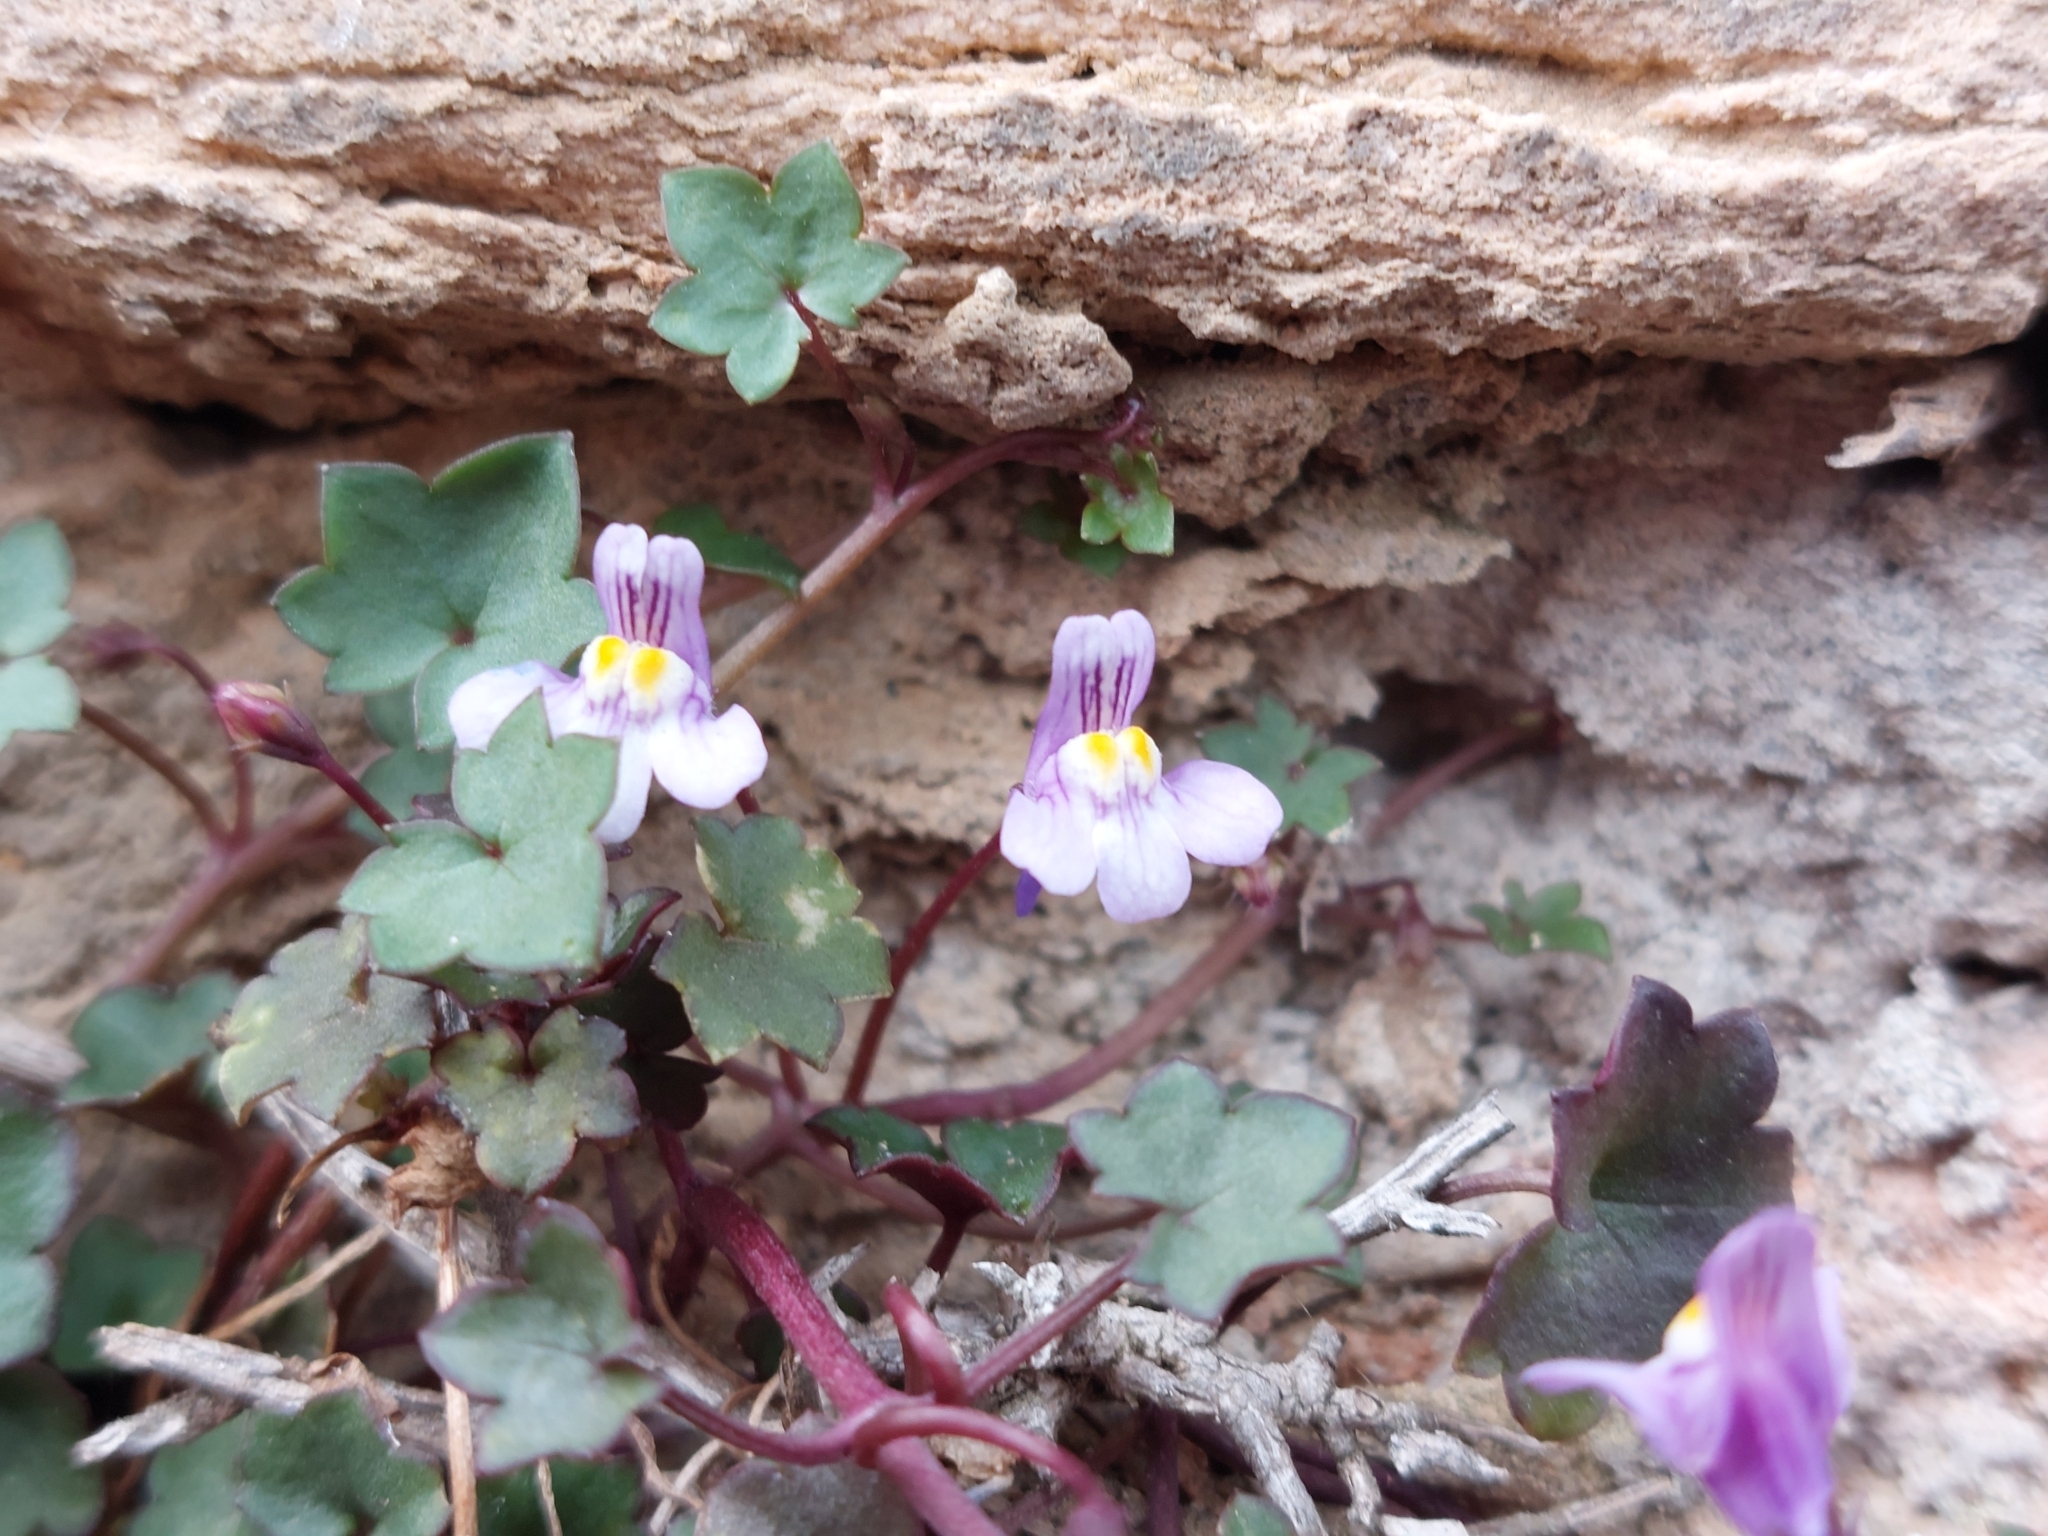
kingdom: Plantae
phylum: Tracheophyta
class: Magnoliopsida
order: Lamiales
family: Plantaginaceae
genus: Cymbalaria
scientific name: Cymbalaria muralis
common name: Ivy-leaved toadflax
